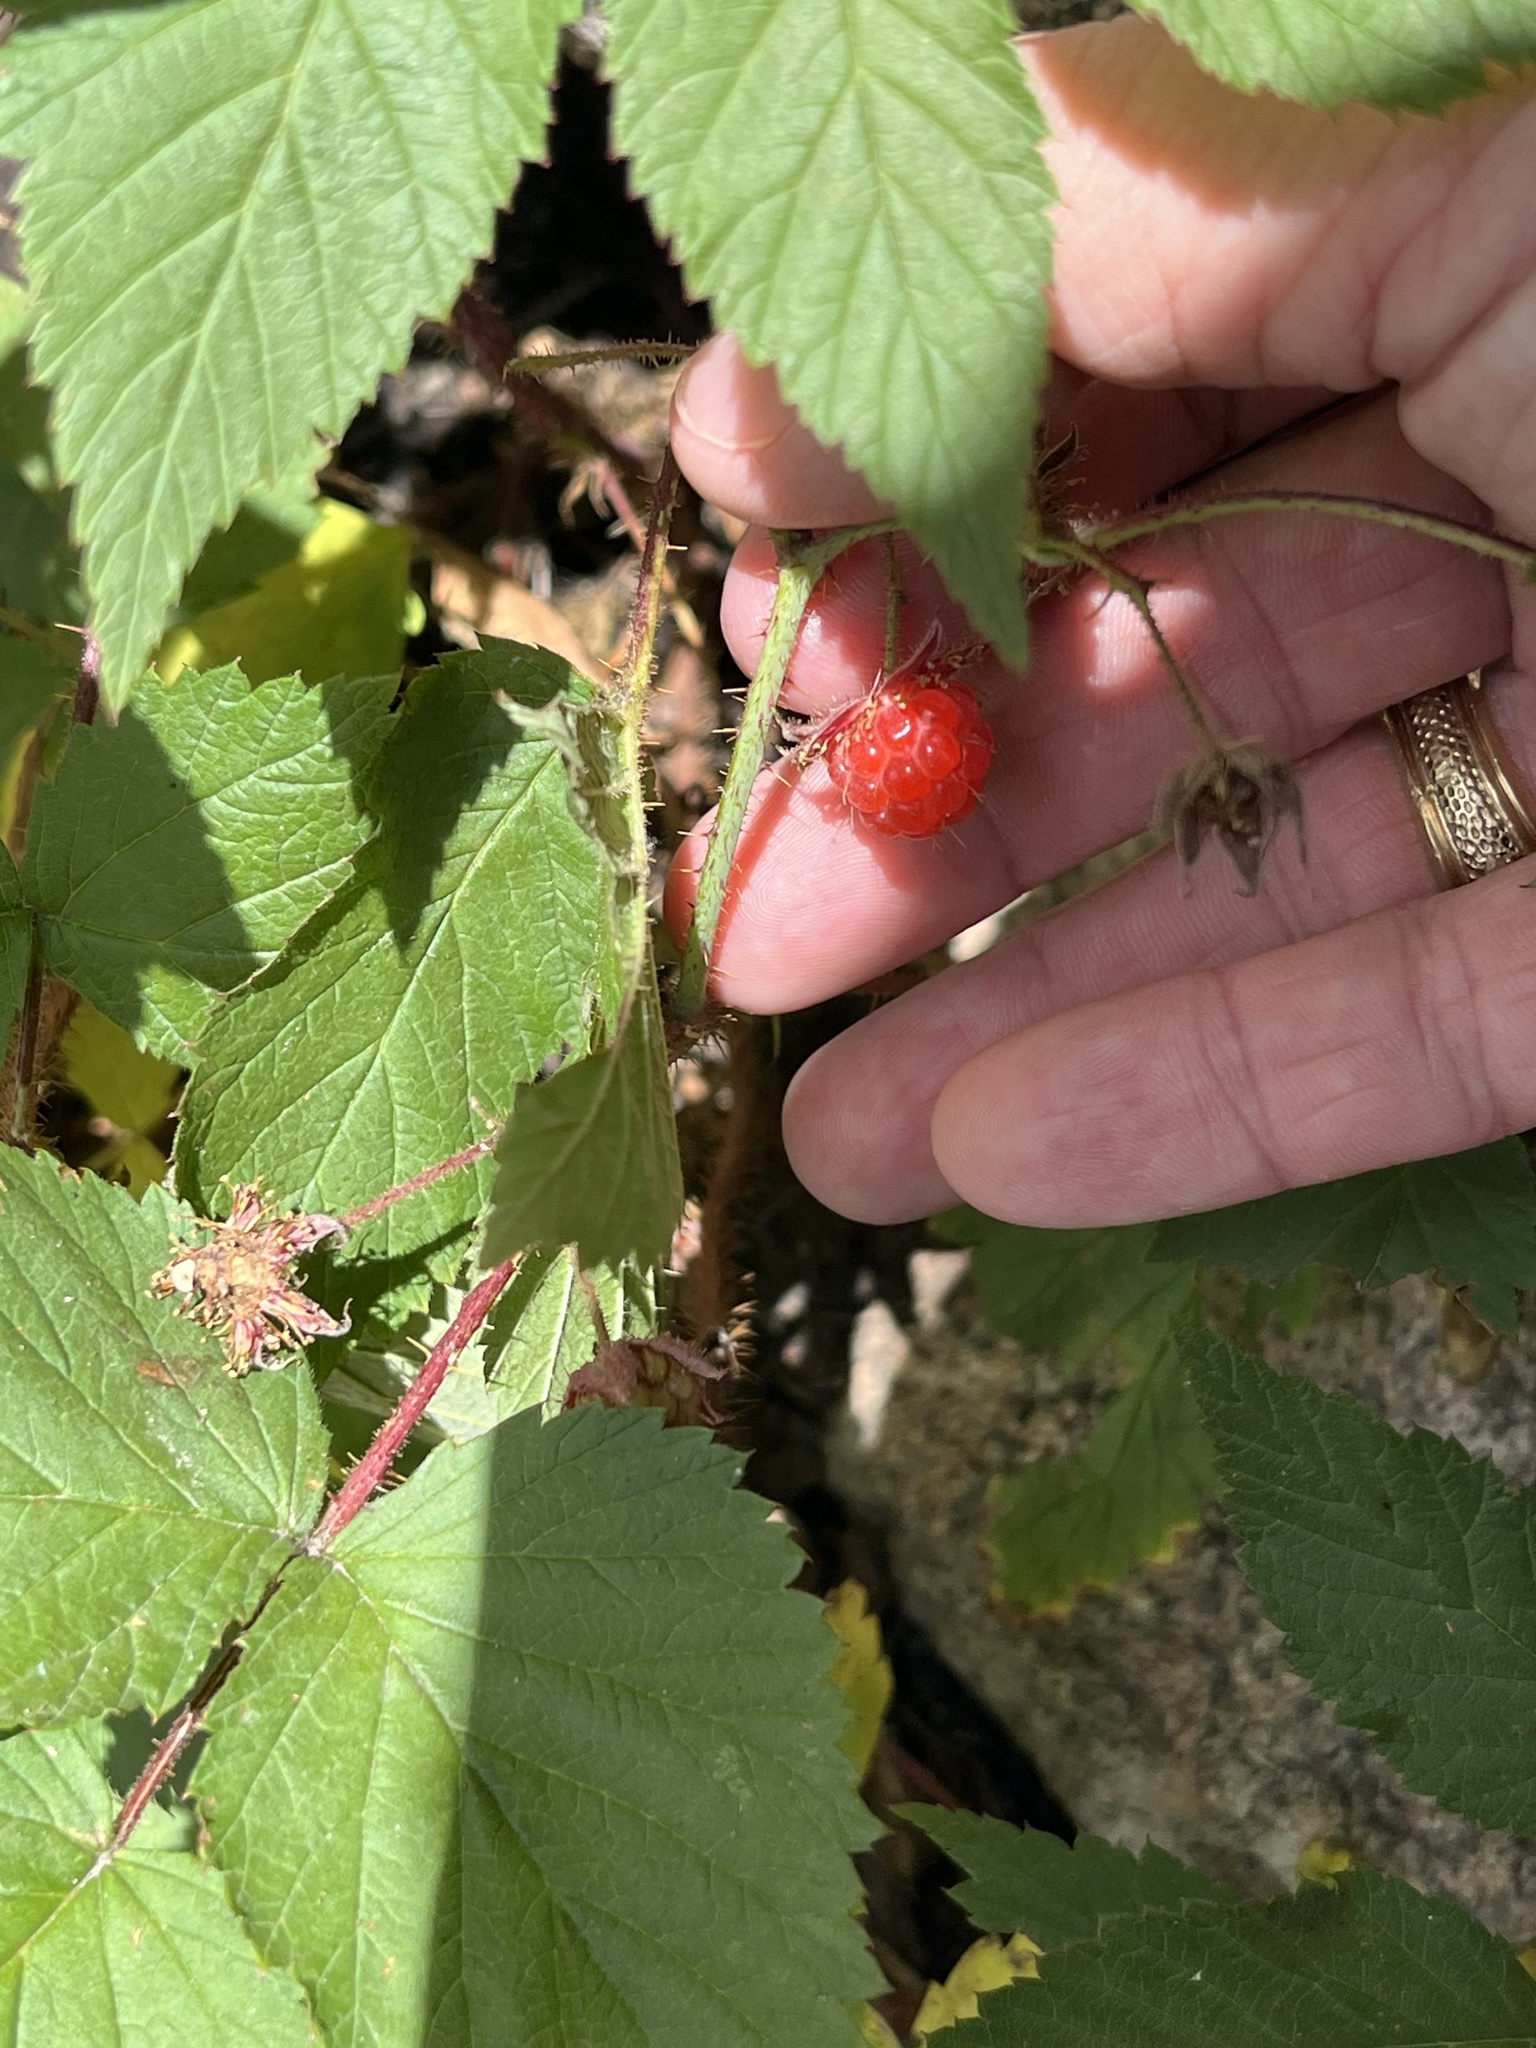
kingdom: Plantae
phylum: Tracheophyta
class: Magnoliopsida
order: Rosales
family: Rosaceae
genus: Rubus
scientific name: Rubus idaeus
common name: Raspberry
